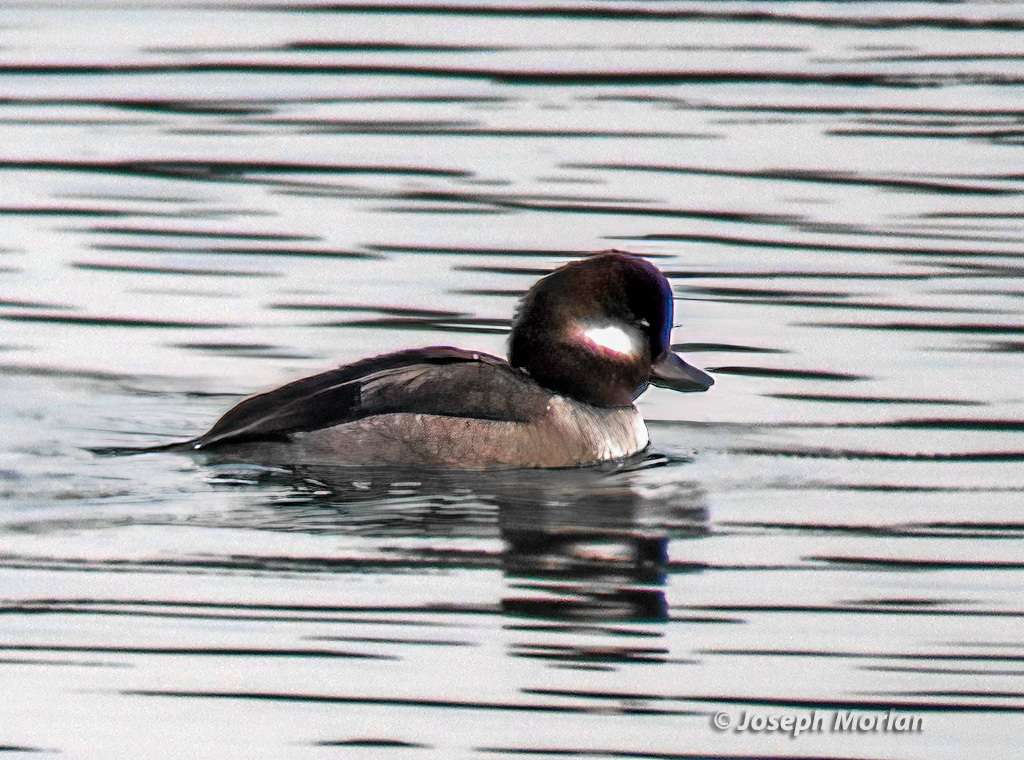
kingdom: Animalia
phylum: Chordata
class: Aves
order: Anseriformes
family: Anatidae
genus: Bucephala
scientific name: Bucephala albeola
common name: Bufflehead
